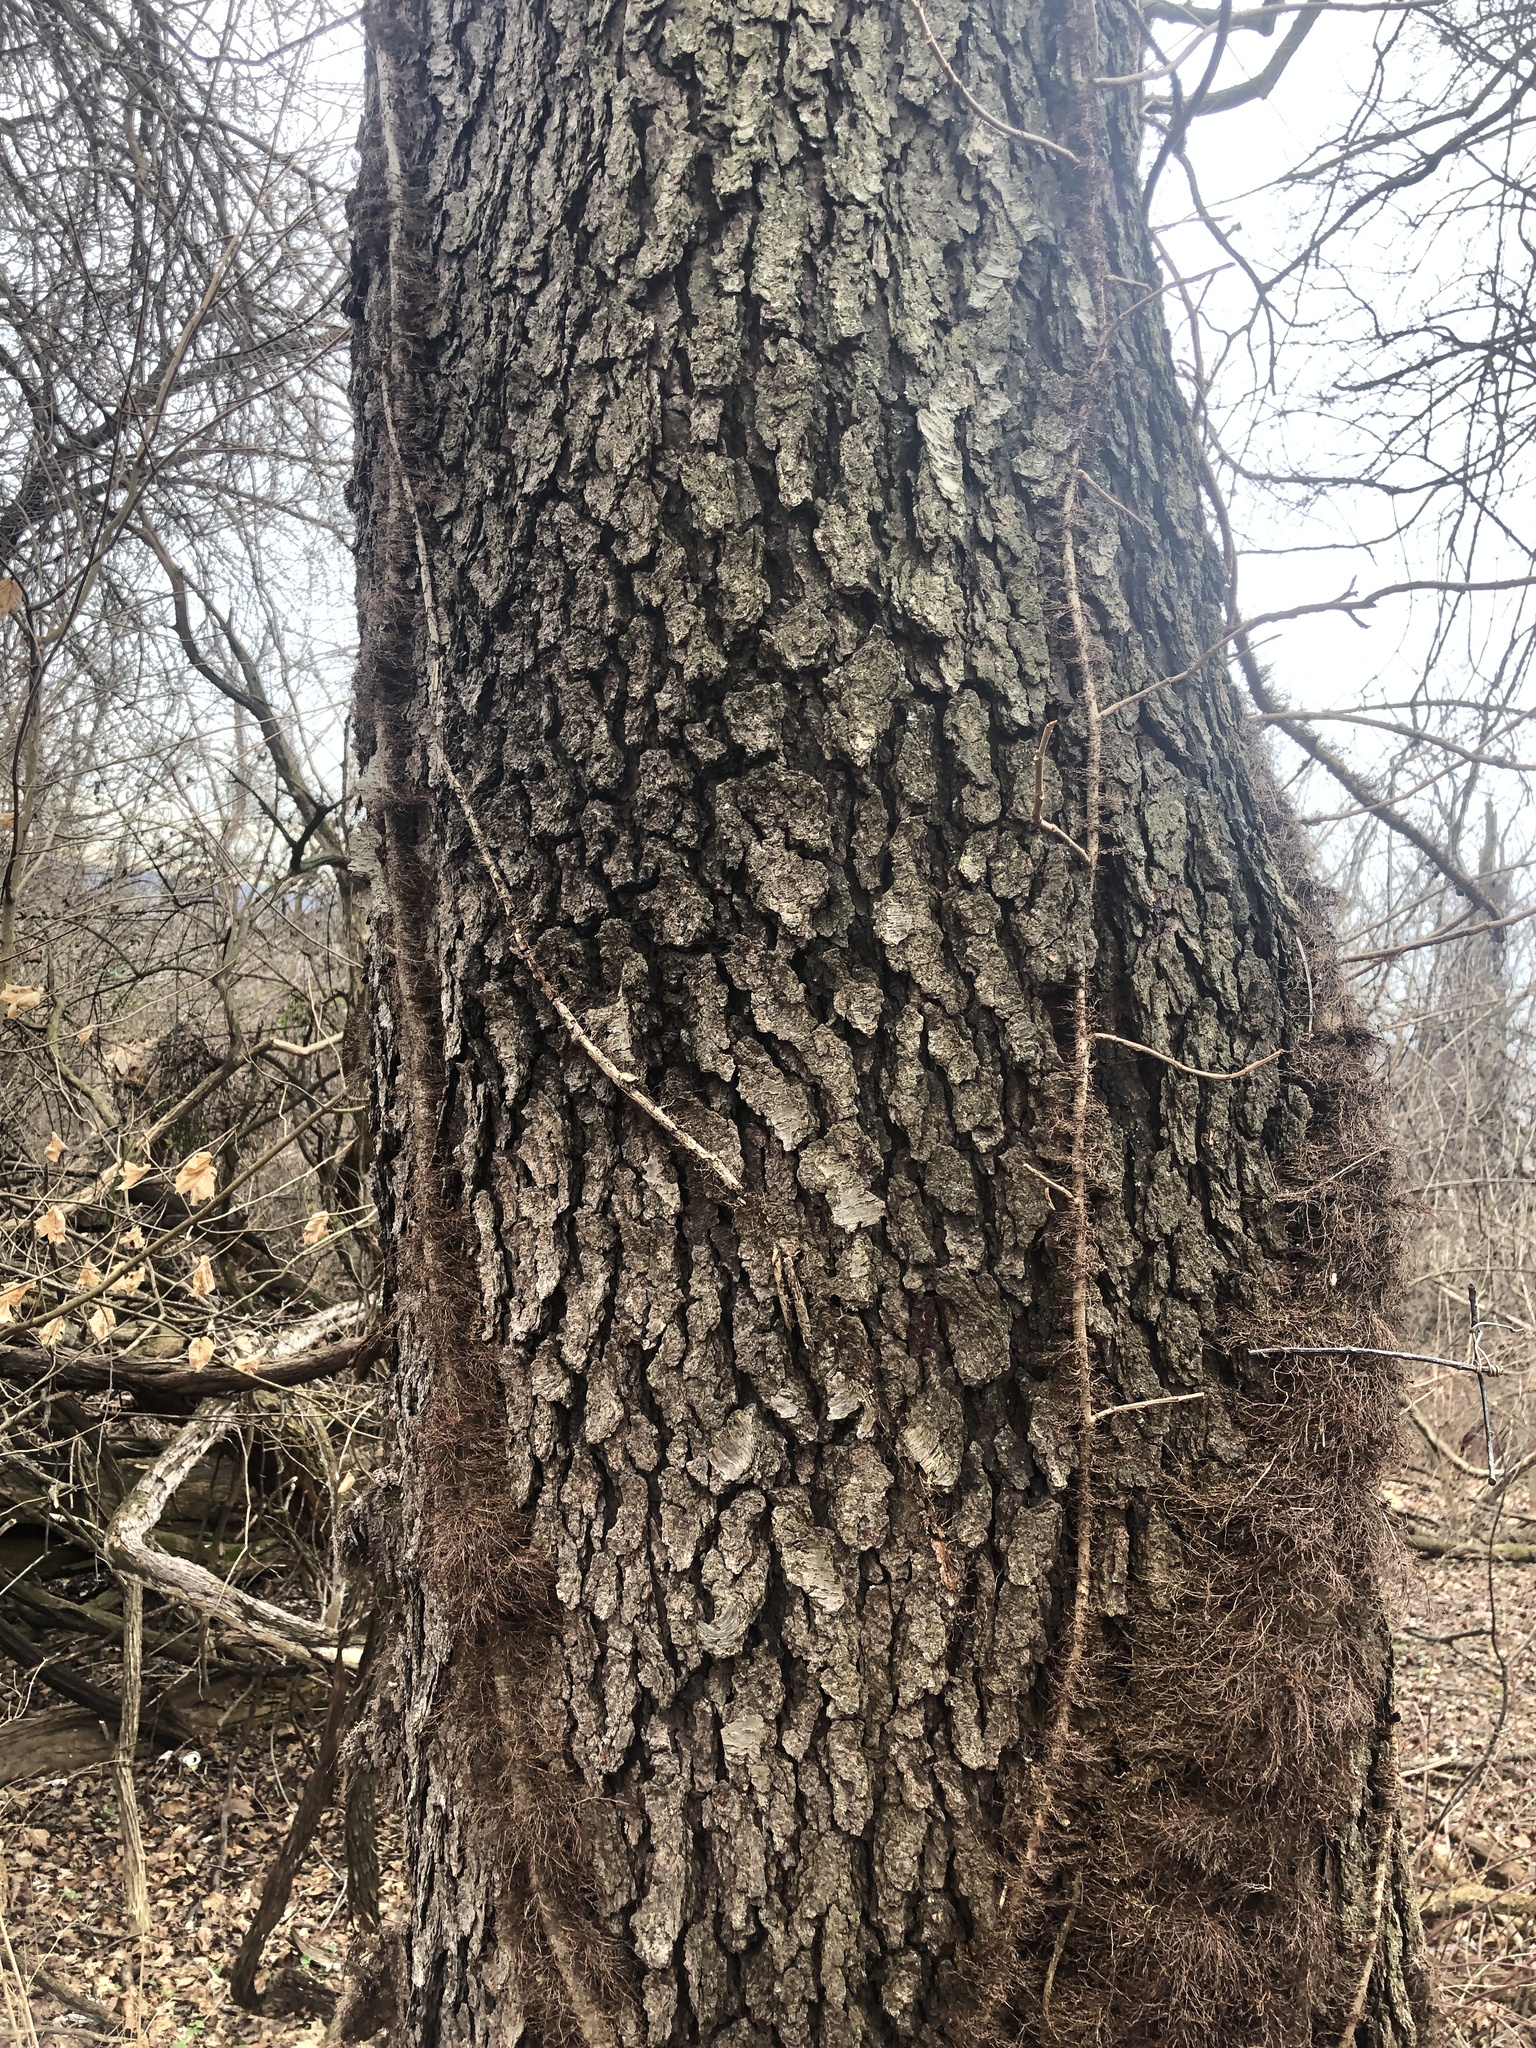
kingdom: Plantae
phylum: Tracheophyta
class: Magnoliopsida
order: Rosales
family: Rosaceae
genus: Prunus
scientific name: Prunus serotina
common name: Black cherry
